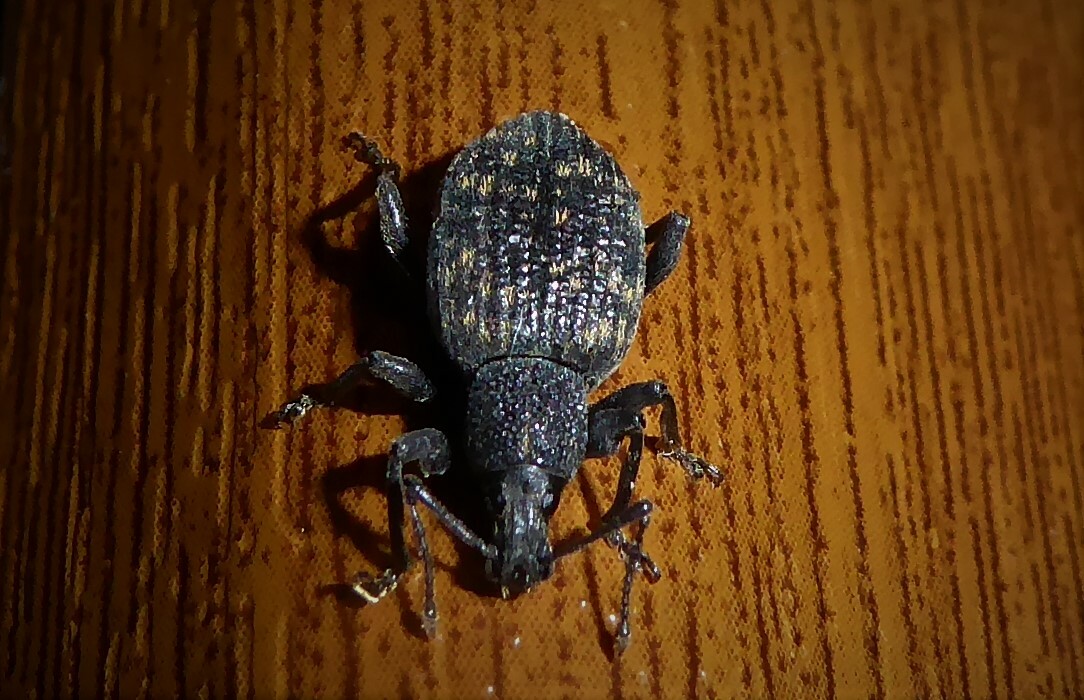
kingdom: Animalia
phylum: Arthropoda
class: Insecta
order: Coleoptera
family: Curculionidae
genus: Otiorhynchus
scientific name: Otiorhynchus sulcatus
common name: Black vine weevil
